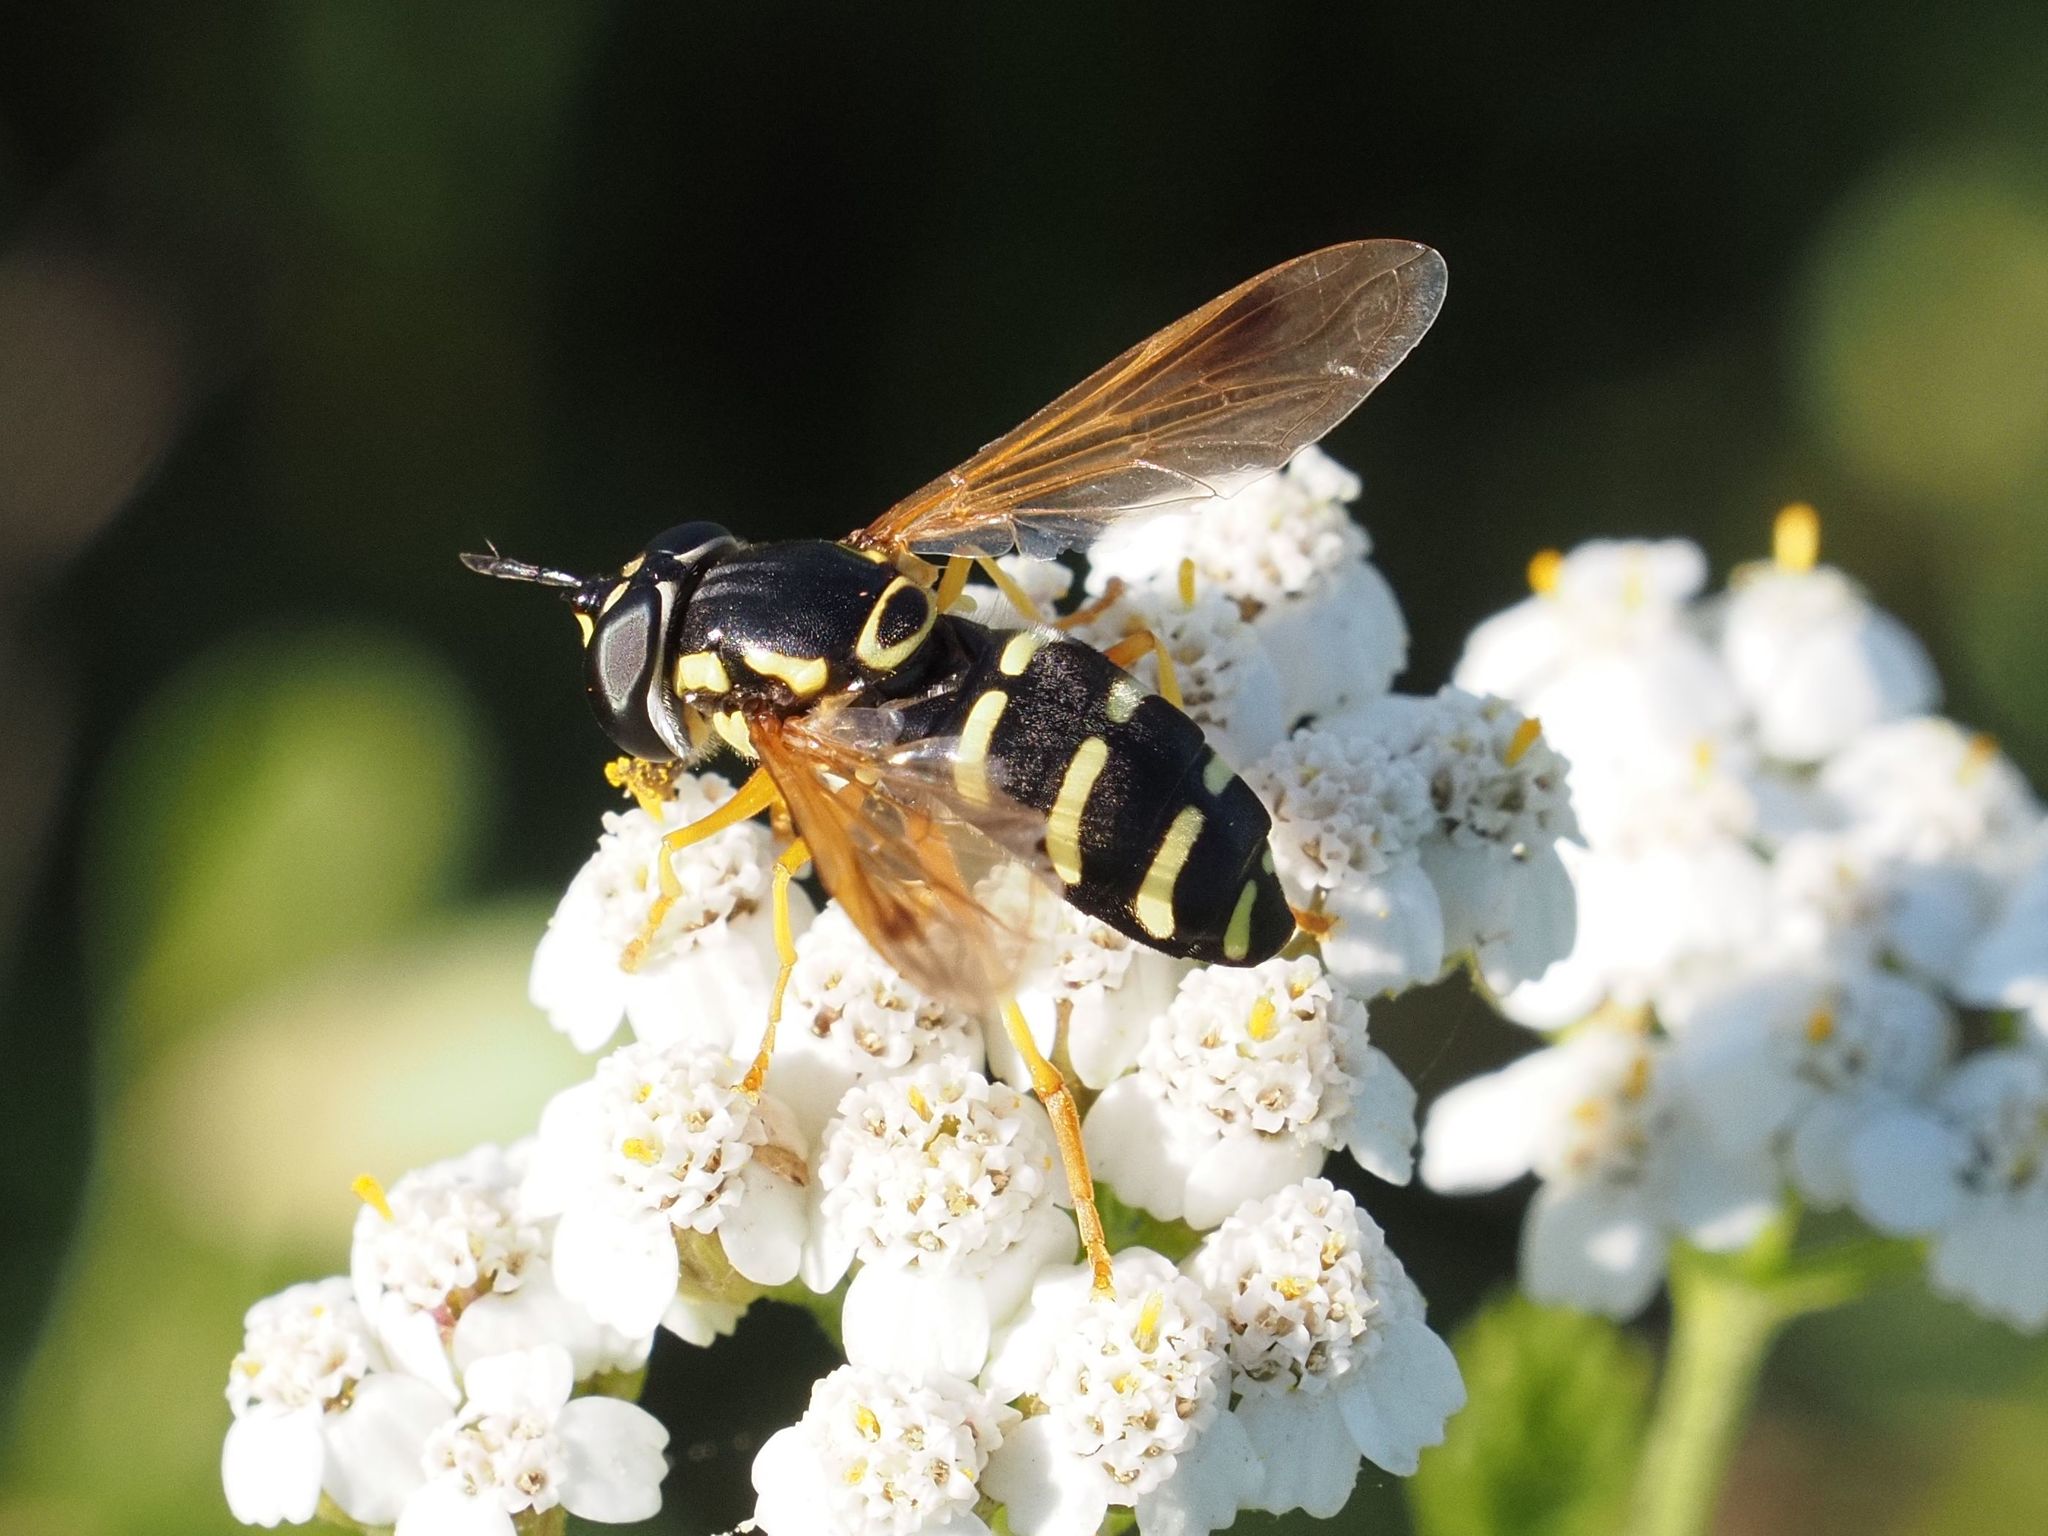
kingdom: Animalia
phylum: Arthropoda
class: Insecta
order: Diptera
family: Syrphidae
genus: Chrysotoxum
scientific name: Chrysotoxum festivum
